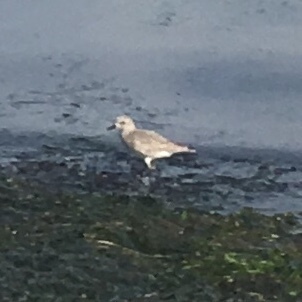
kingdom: Animalia
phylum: Chordata
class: Aves
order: Charadriiformes
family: Charadriidae
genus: Pluvialis
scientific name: Pluvialis squatarola
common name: Grey plover
